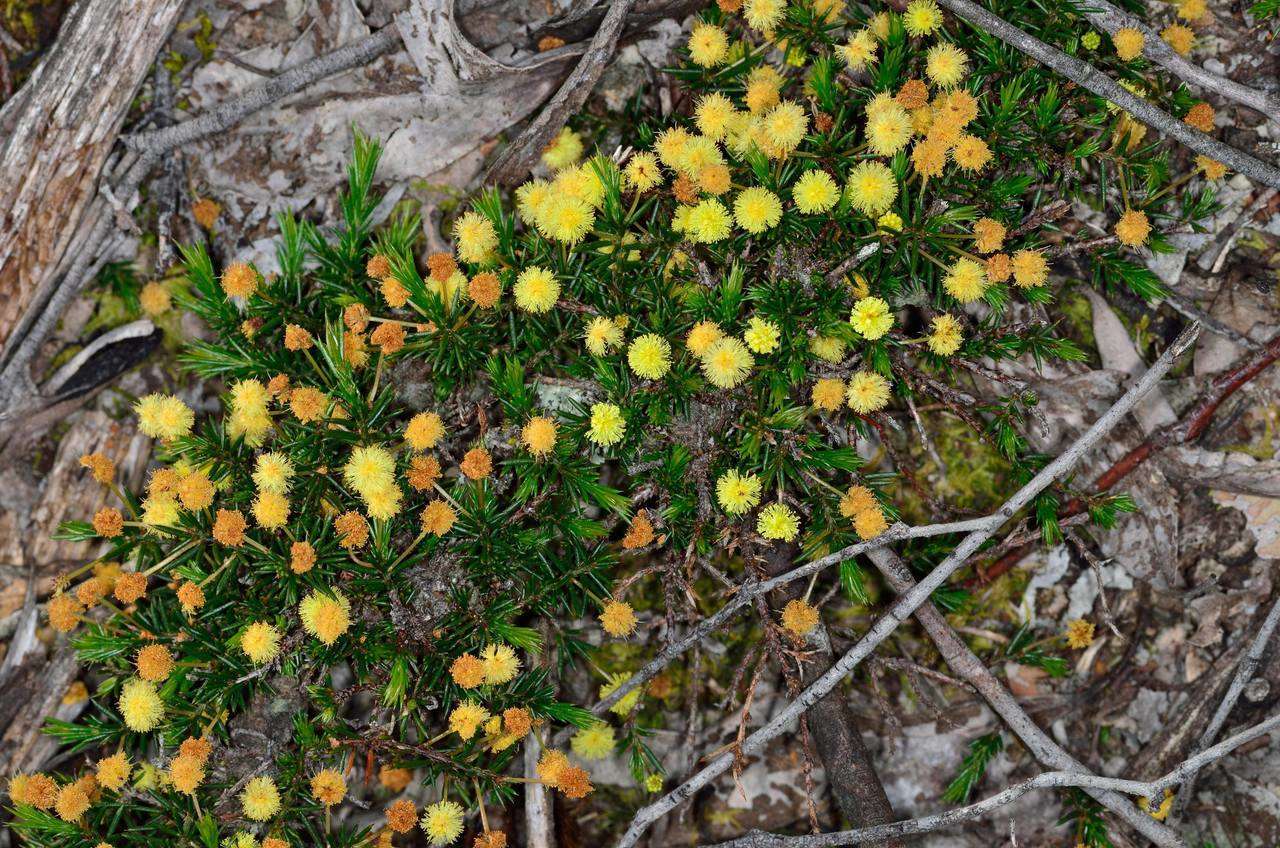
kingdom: Plantae
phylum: Tracheophyta
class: Magnoliopsida
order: Fabales
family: Fabaceae
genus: Acacia
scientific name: Acacia aculeatissima
